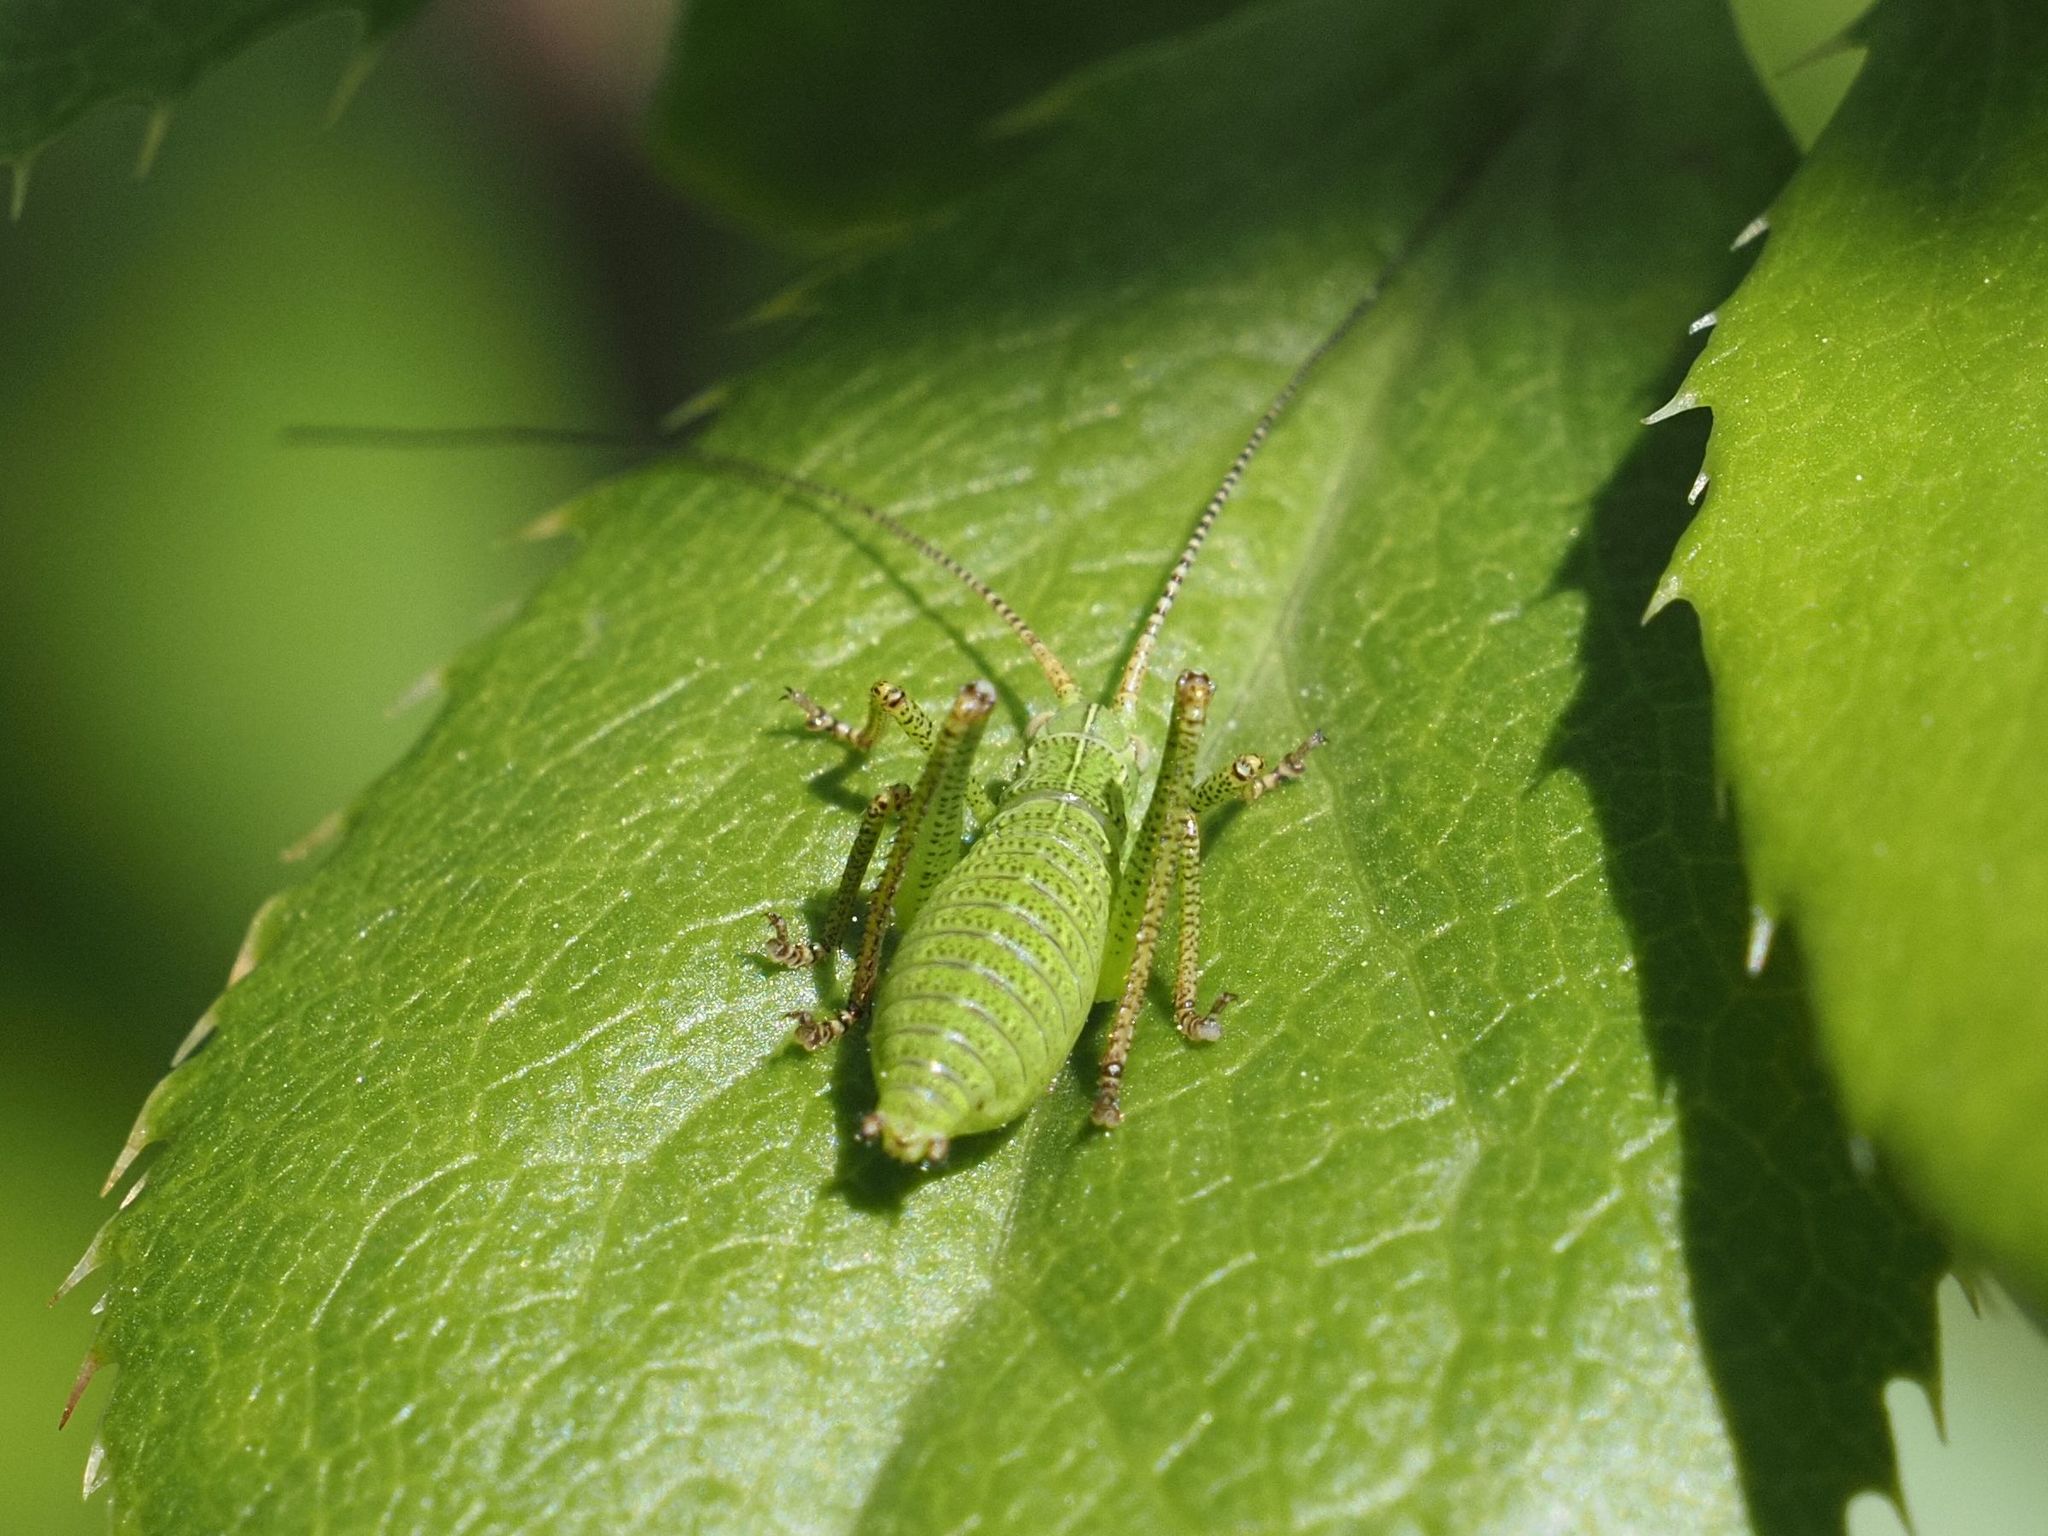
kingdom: Animalia
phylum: Arthropoda
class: Insecta
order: Orthoptera
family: Tettigoniidae
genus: Barbitistes
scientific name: Barbitistes serricauda
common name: Saw-tailed bush-cricket
